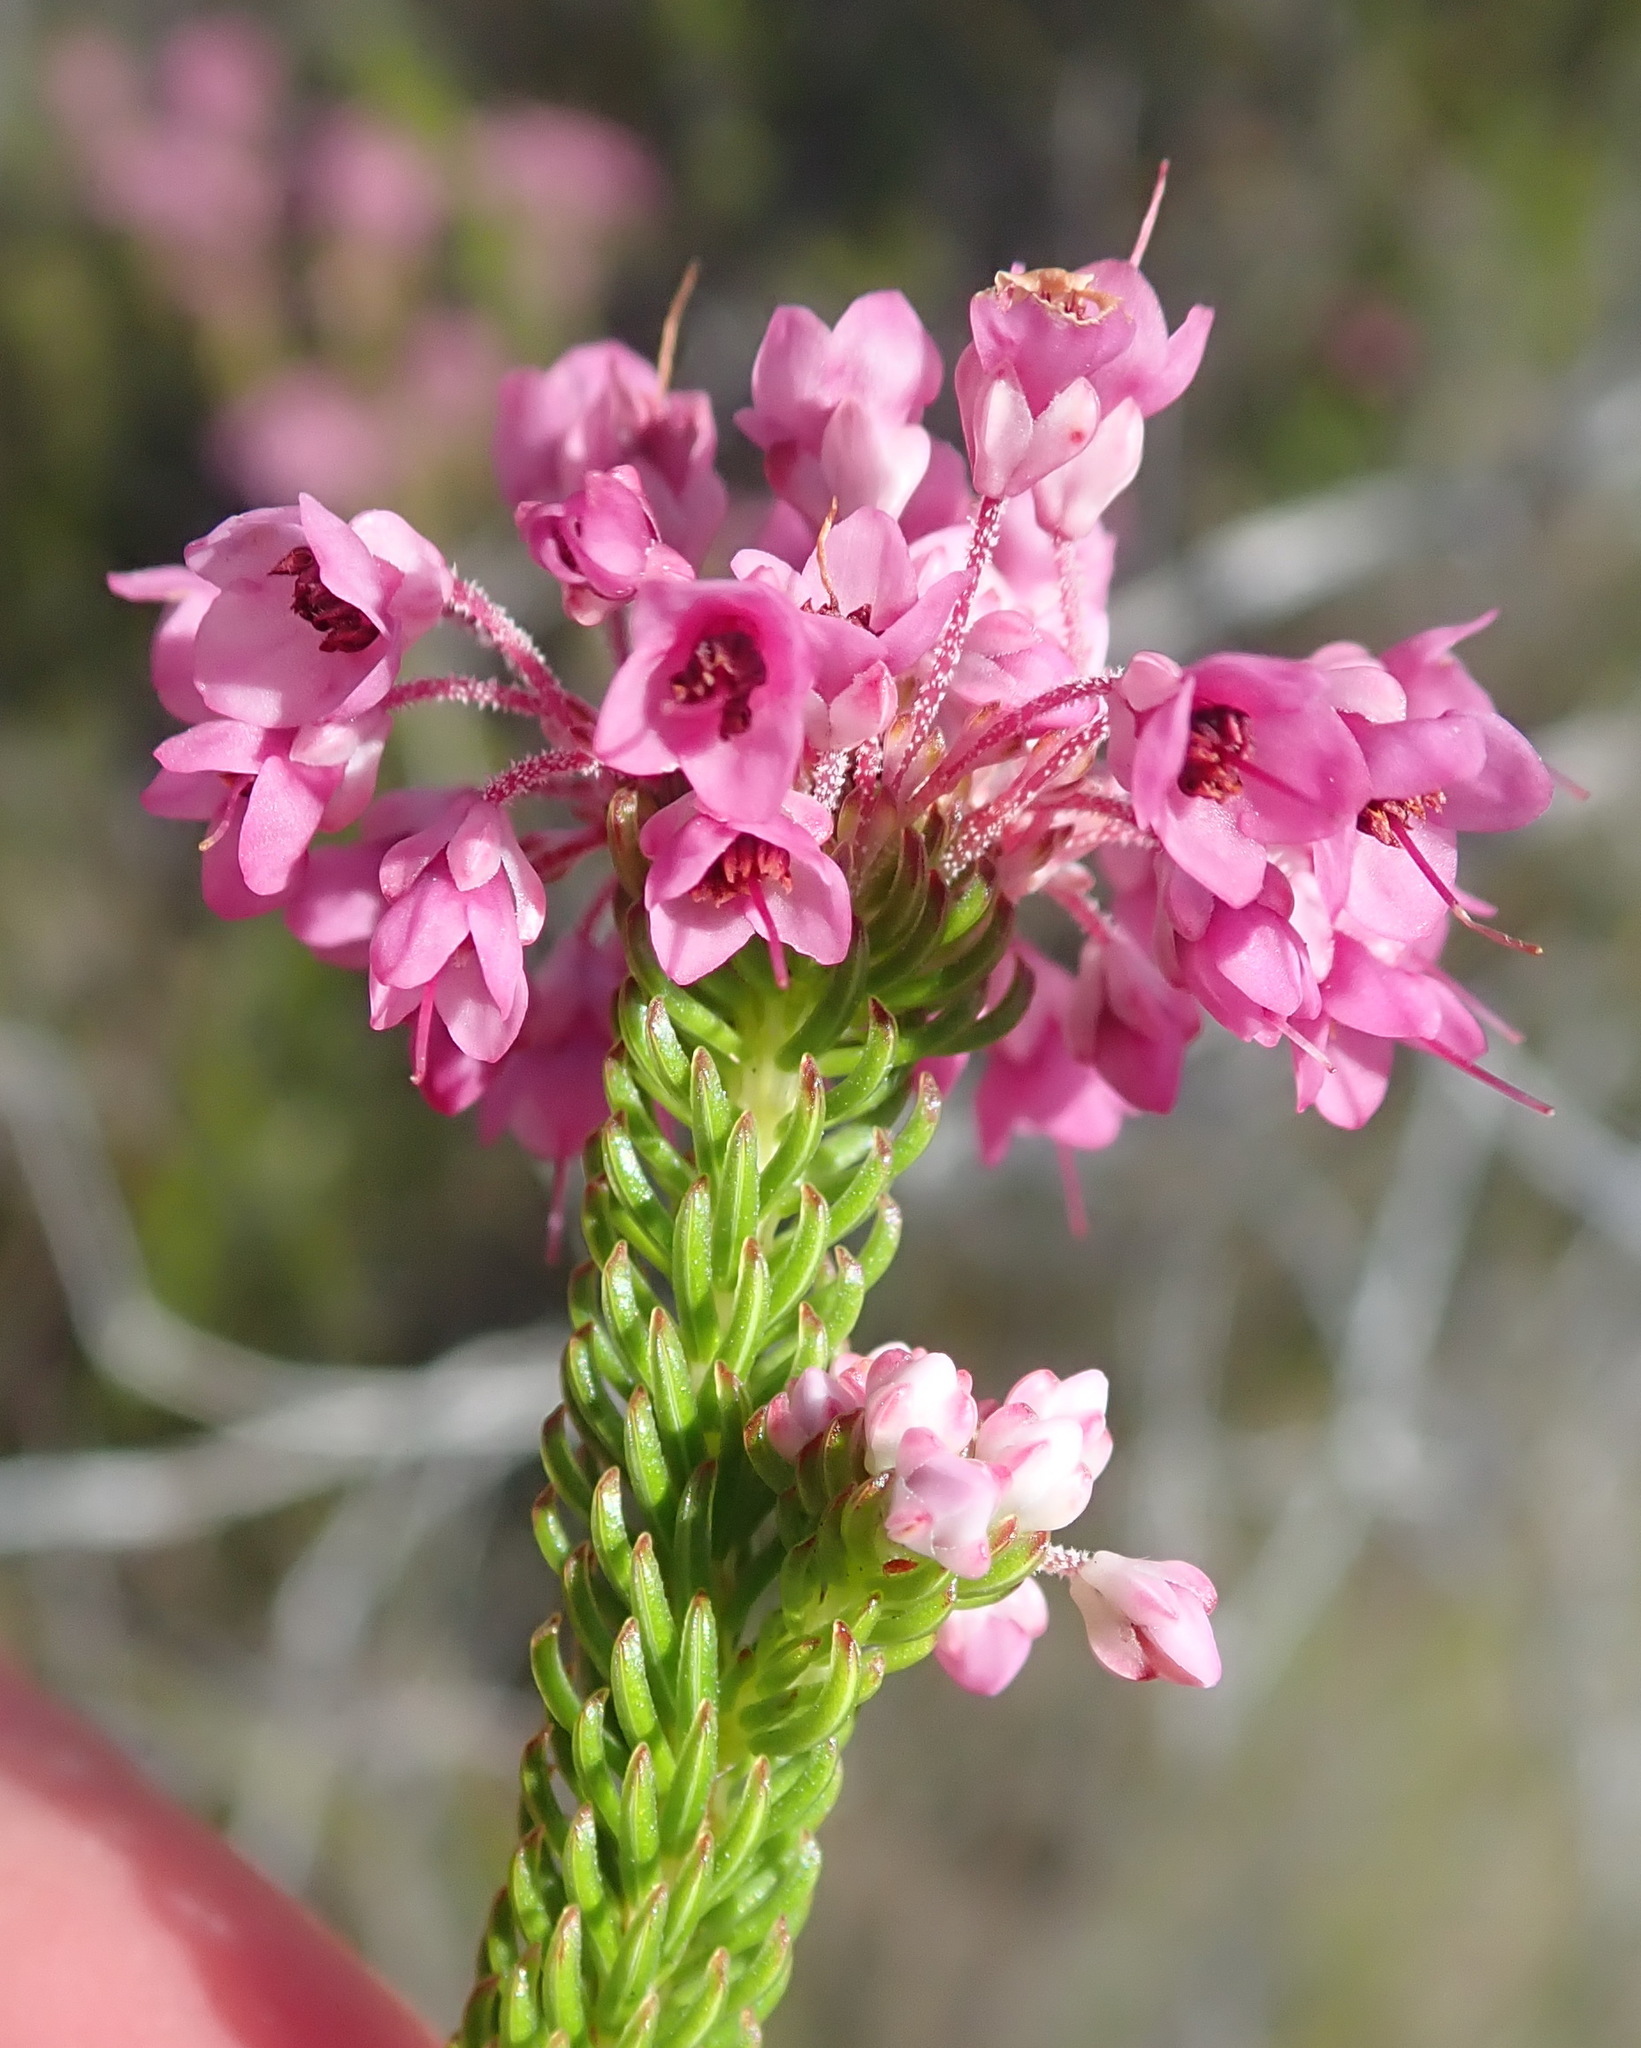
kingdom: Plantae
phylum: Tracheophyta
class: Magnoliopsida
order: Ericales
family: Ericaceae
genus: Erica
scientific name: Erica seriphiifolia
